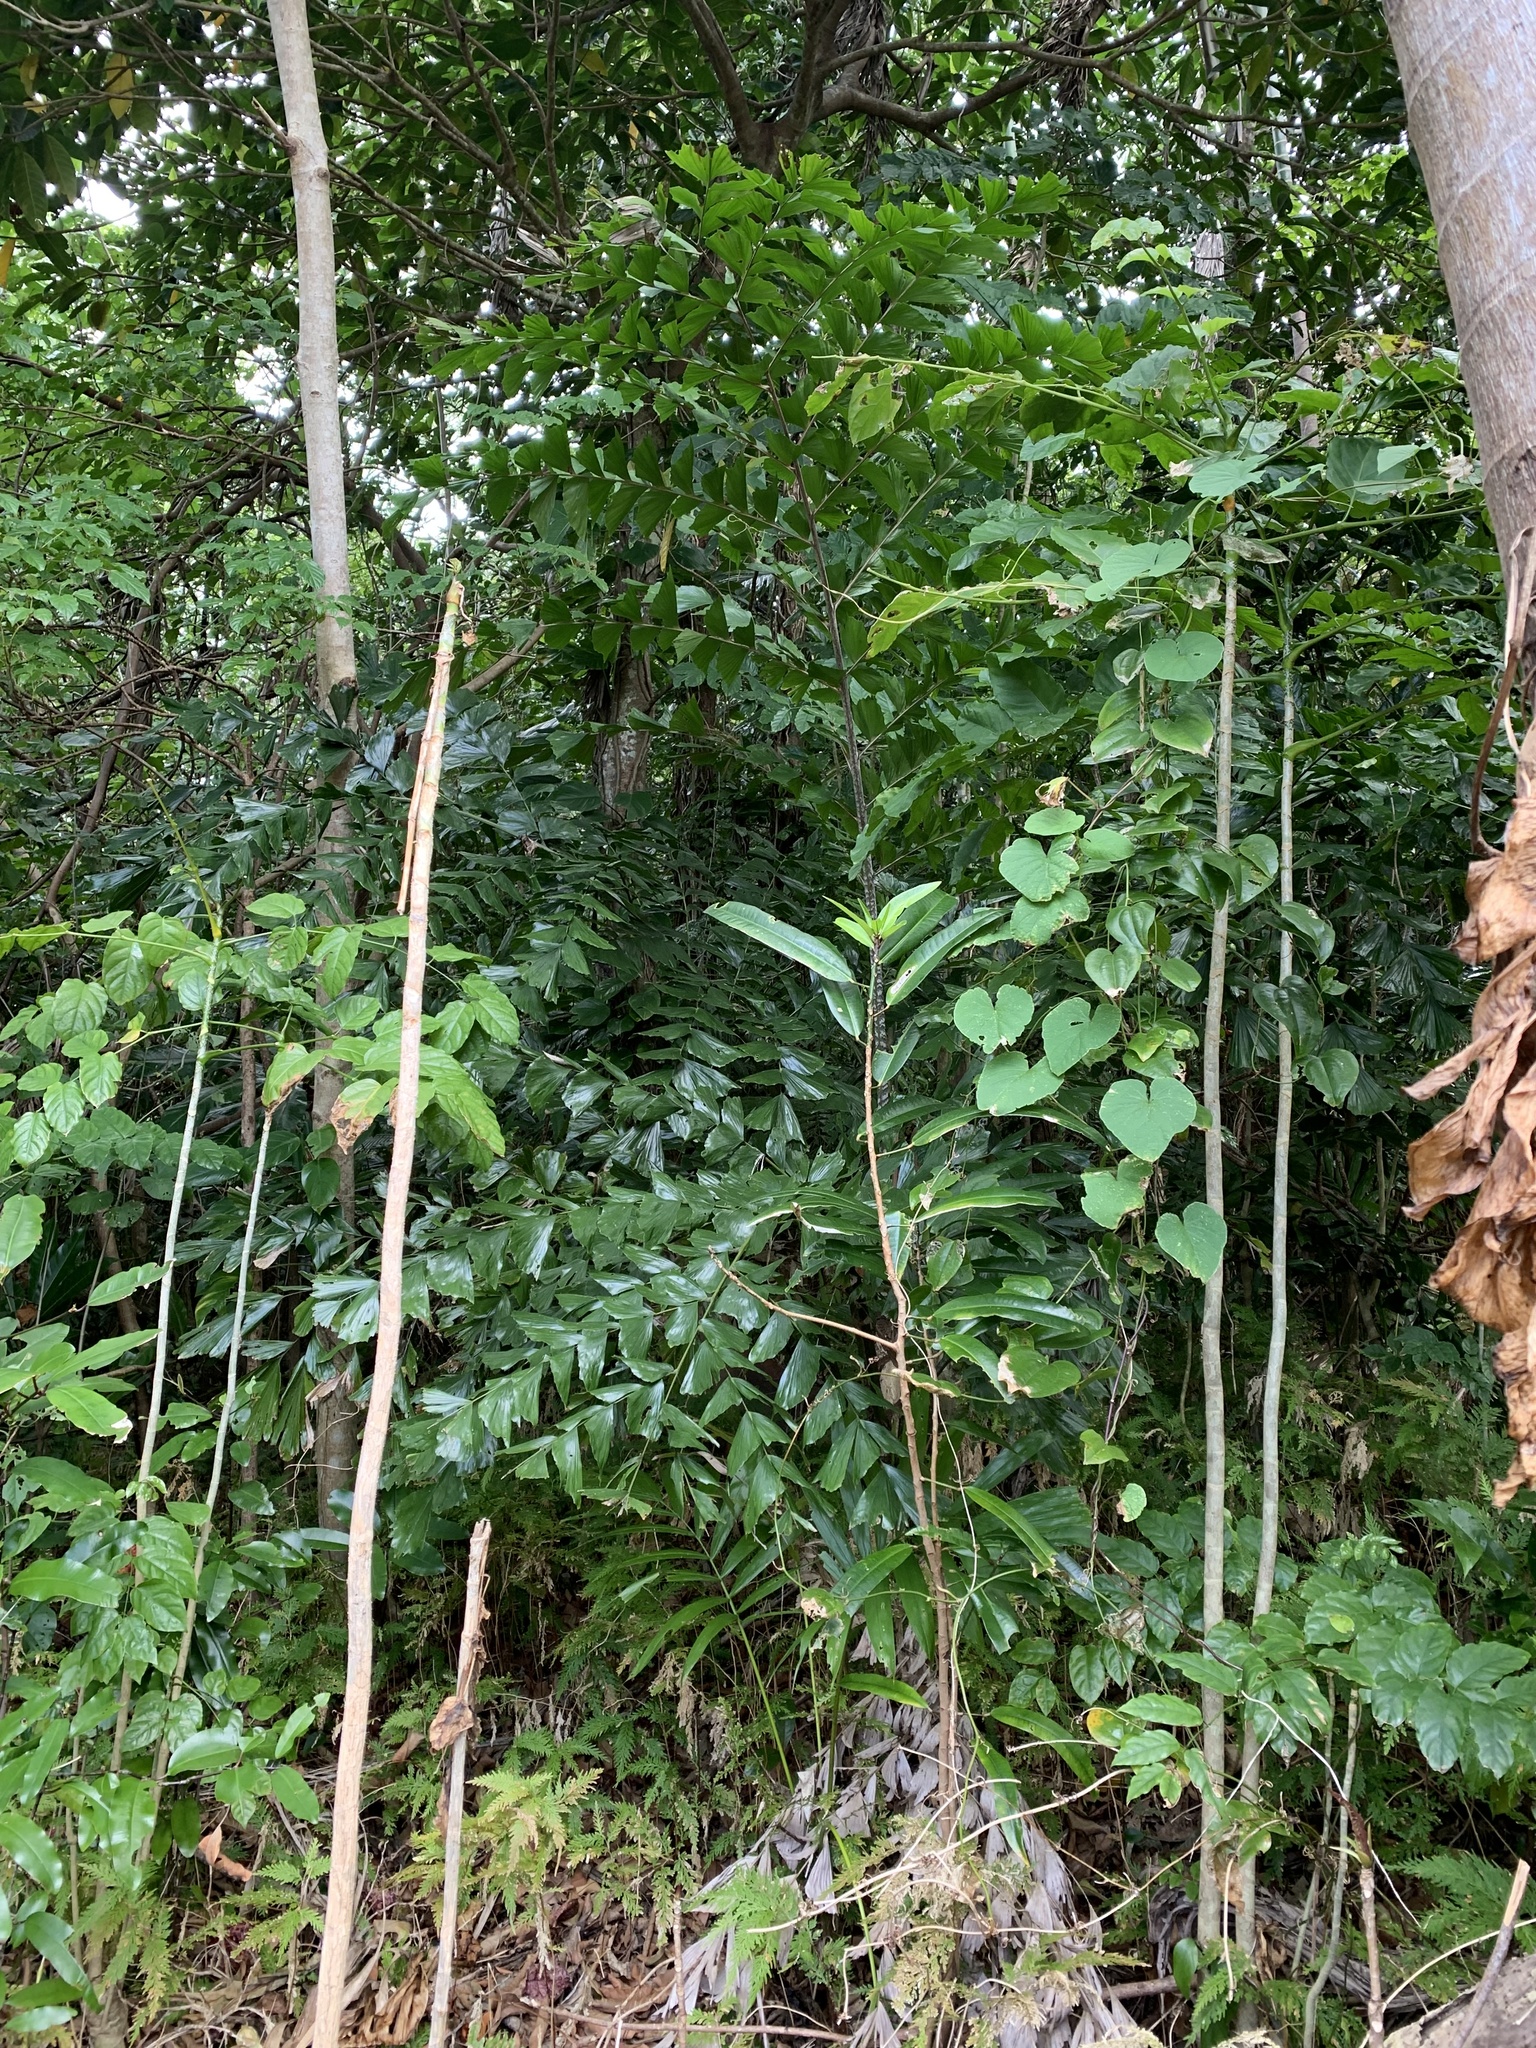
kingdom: Plantae
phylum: Tracheophyta
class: Liliopsida
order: Arecales
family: Arecaceae
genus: Caryota
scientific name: Caryota ophiopellis
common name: Snake palm
